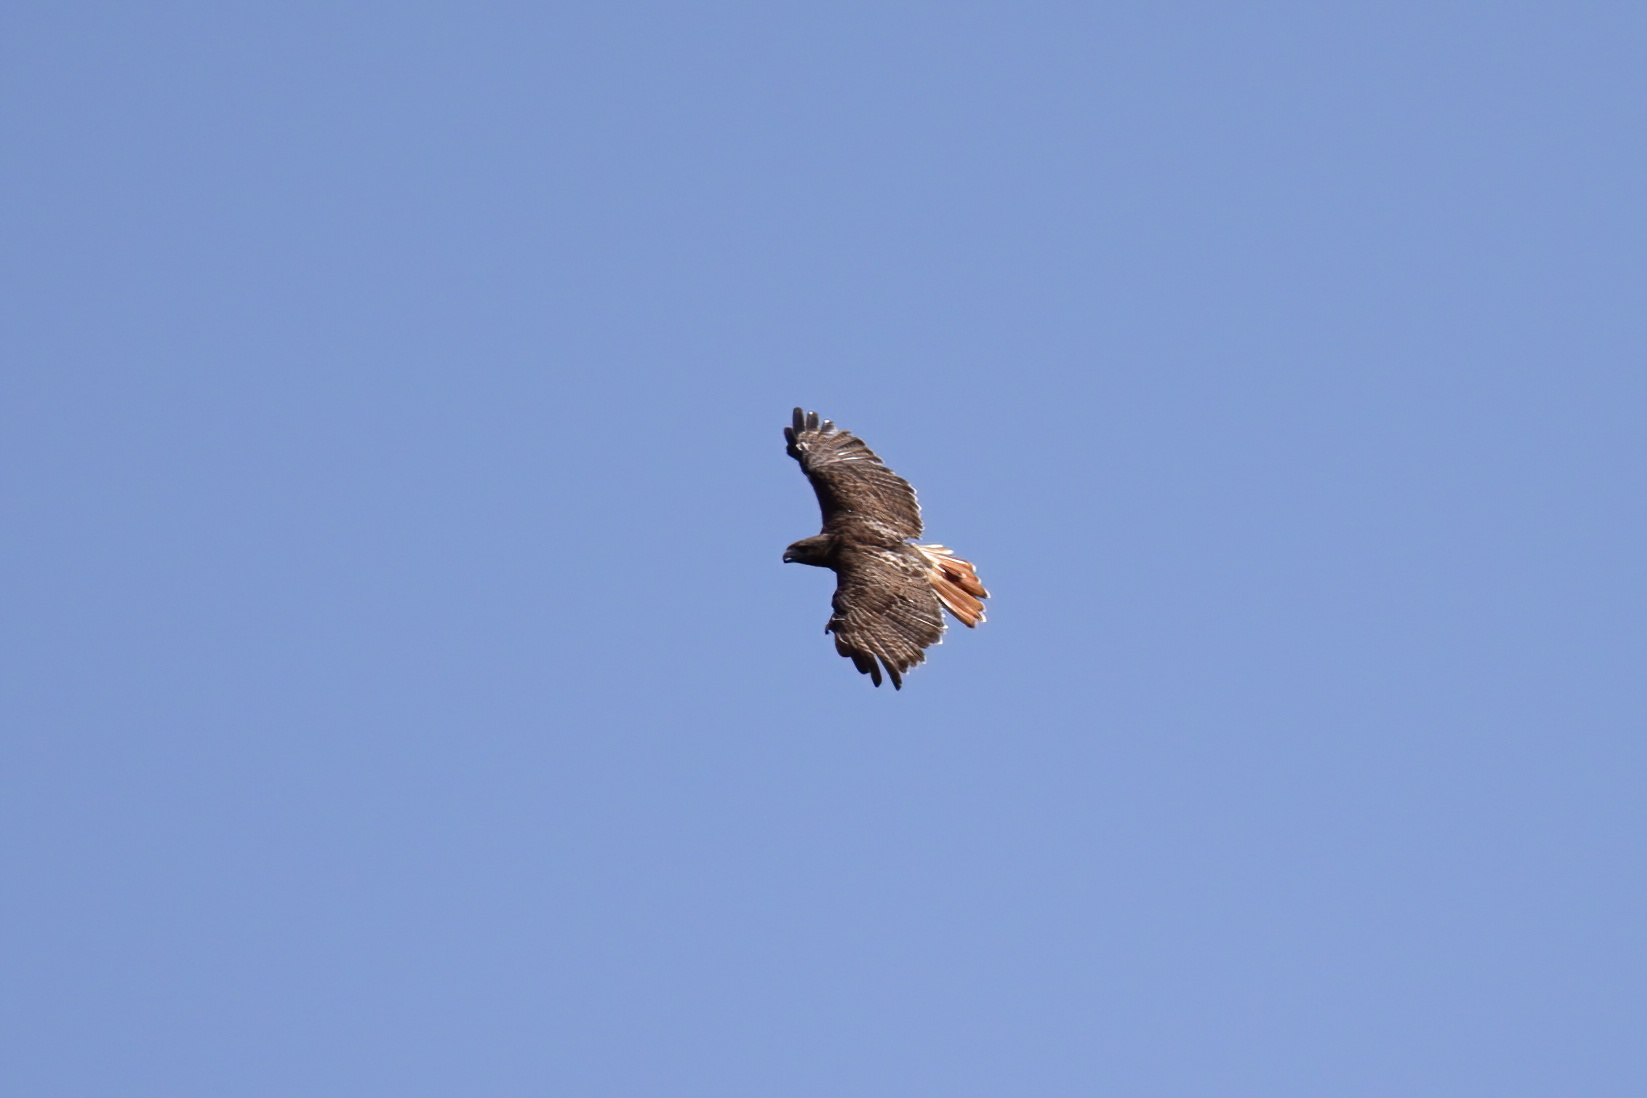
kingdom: Animalia
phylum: Chordata
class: Aves
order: Accipitriformes
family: Accipitridae
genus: Buteo
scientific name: Buteo jamaicensis
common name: Red-tailed hawk
